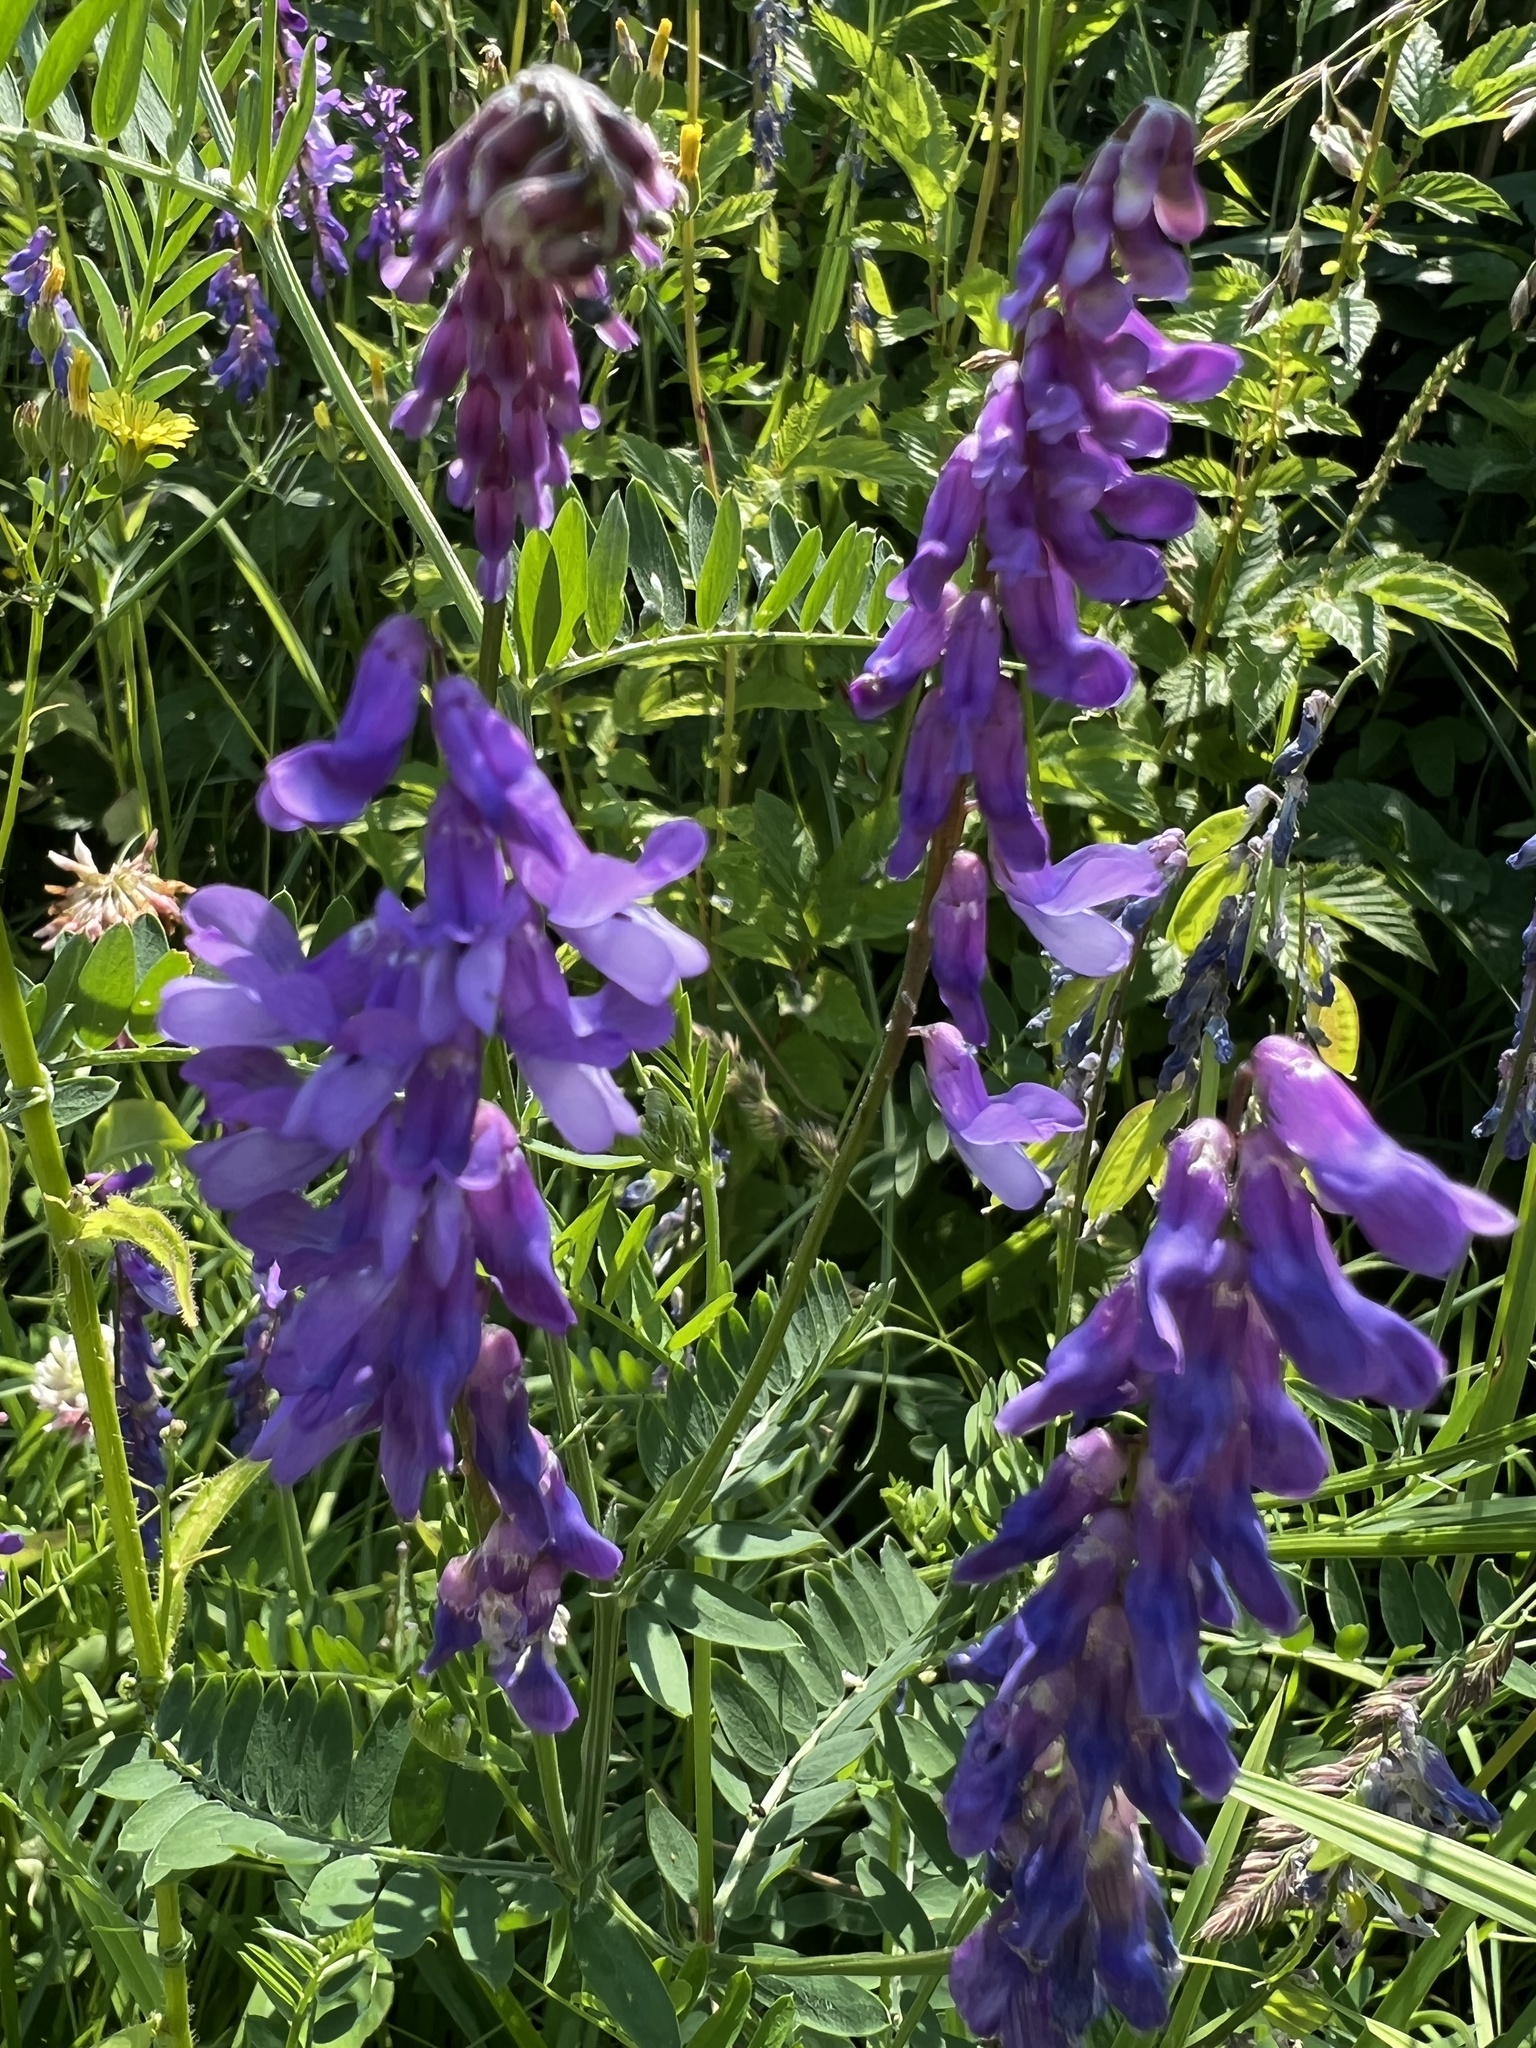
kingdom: Plantae
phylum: Tracheophyta
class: Magnoliopsida
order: Fabales
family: Fabaceae
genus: Vicia
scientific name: Vicia cracca
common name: Bird vetch
